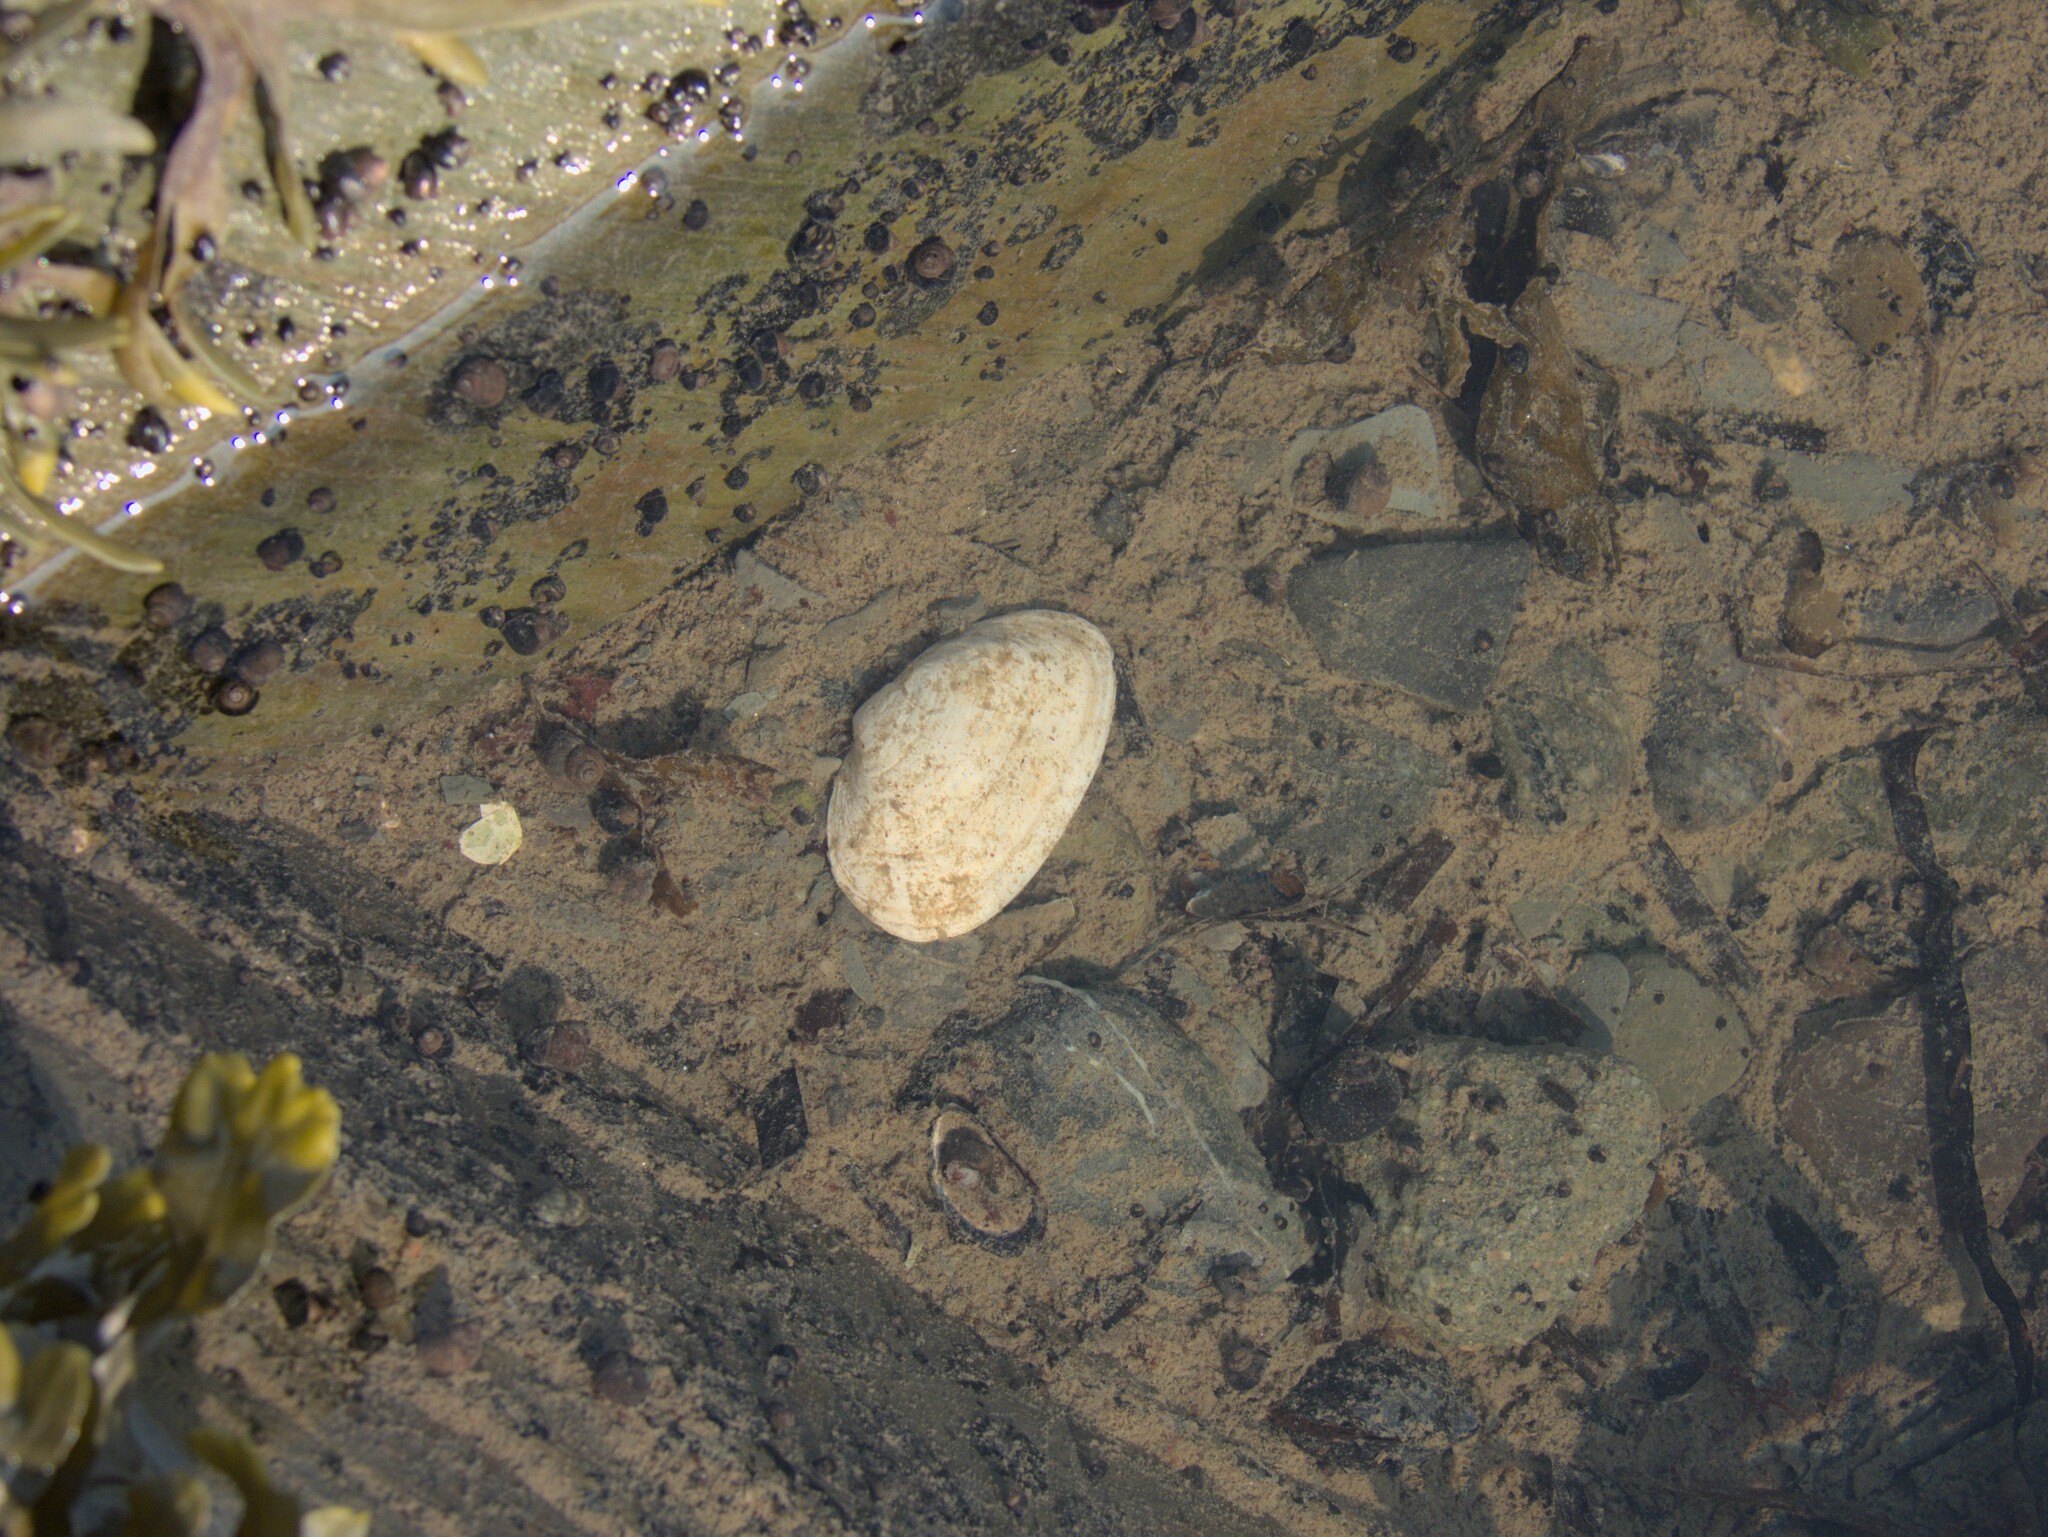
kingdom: Animalia
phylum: Mollusca
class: Bivalvia
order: Myida
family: Myidae
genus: Mya
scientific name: Mya arenaria
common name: Soft-shelled clam
